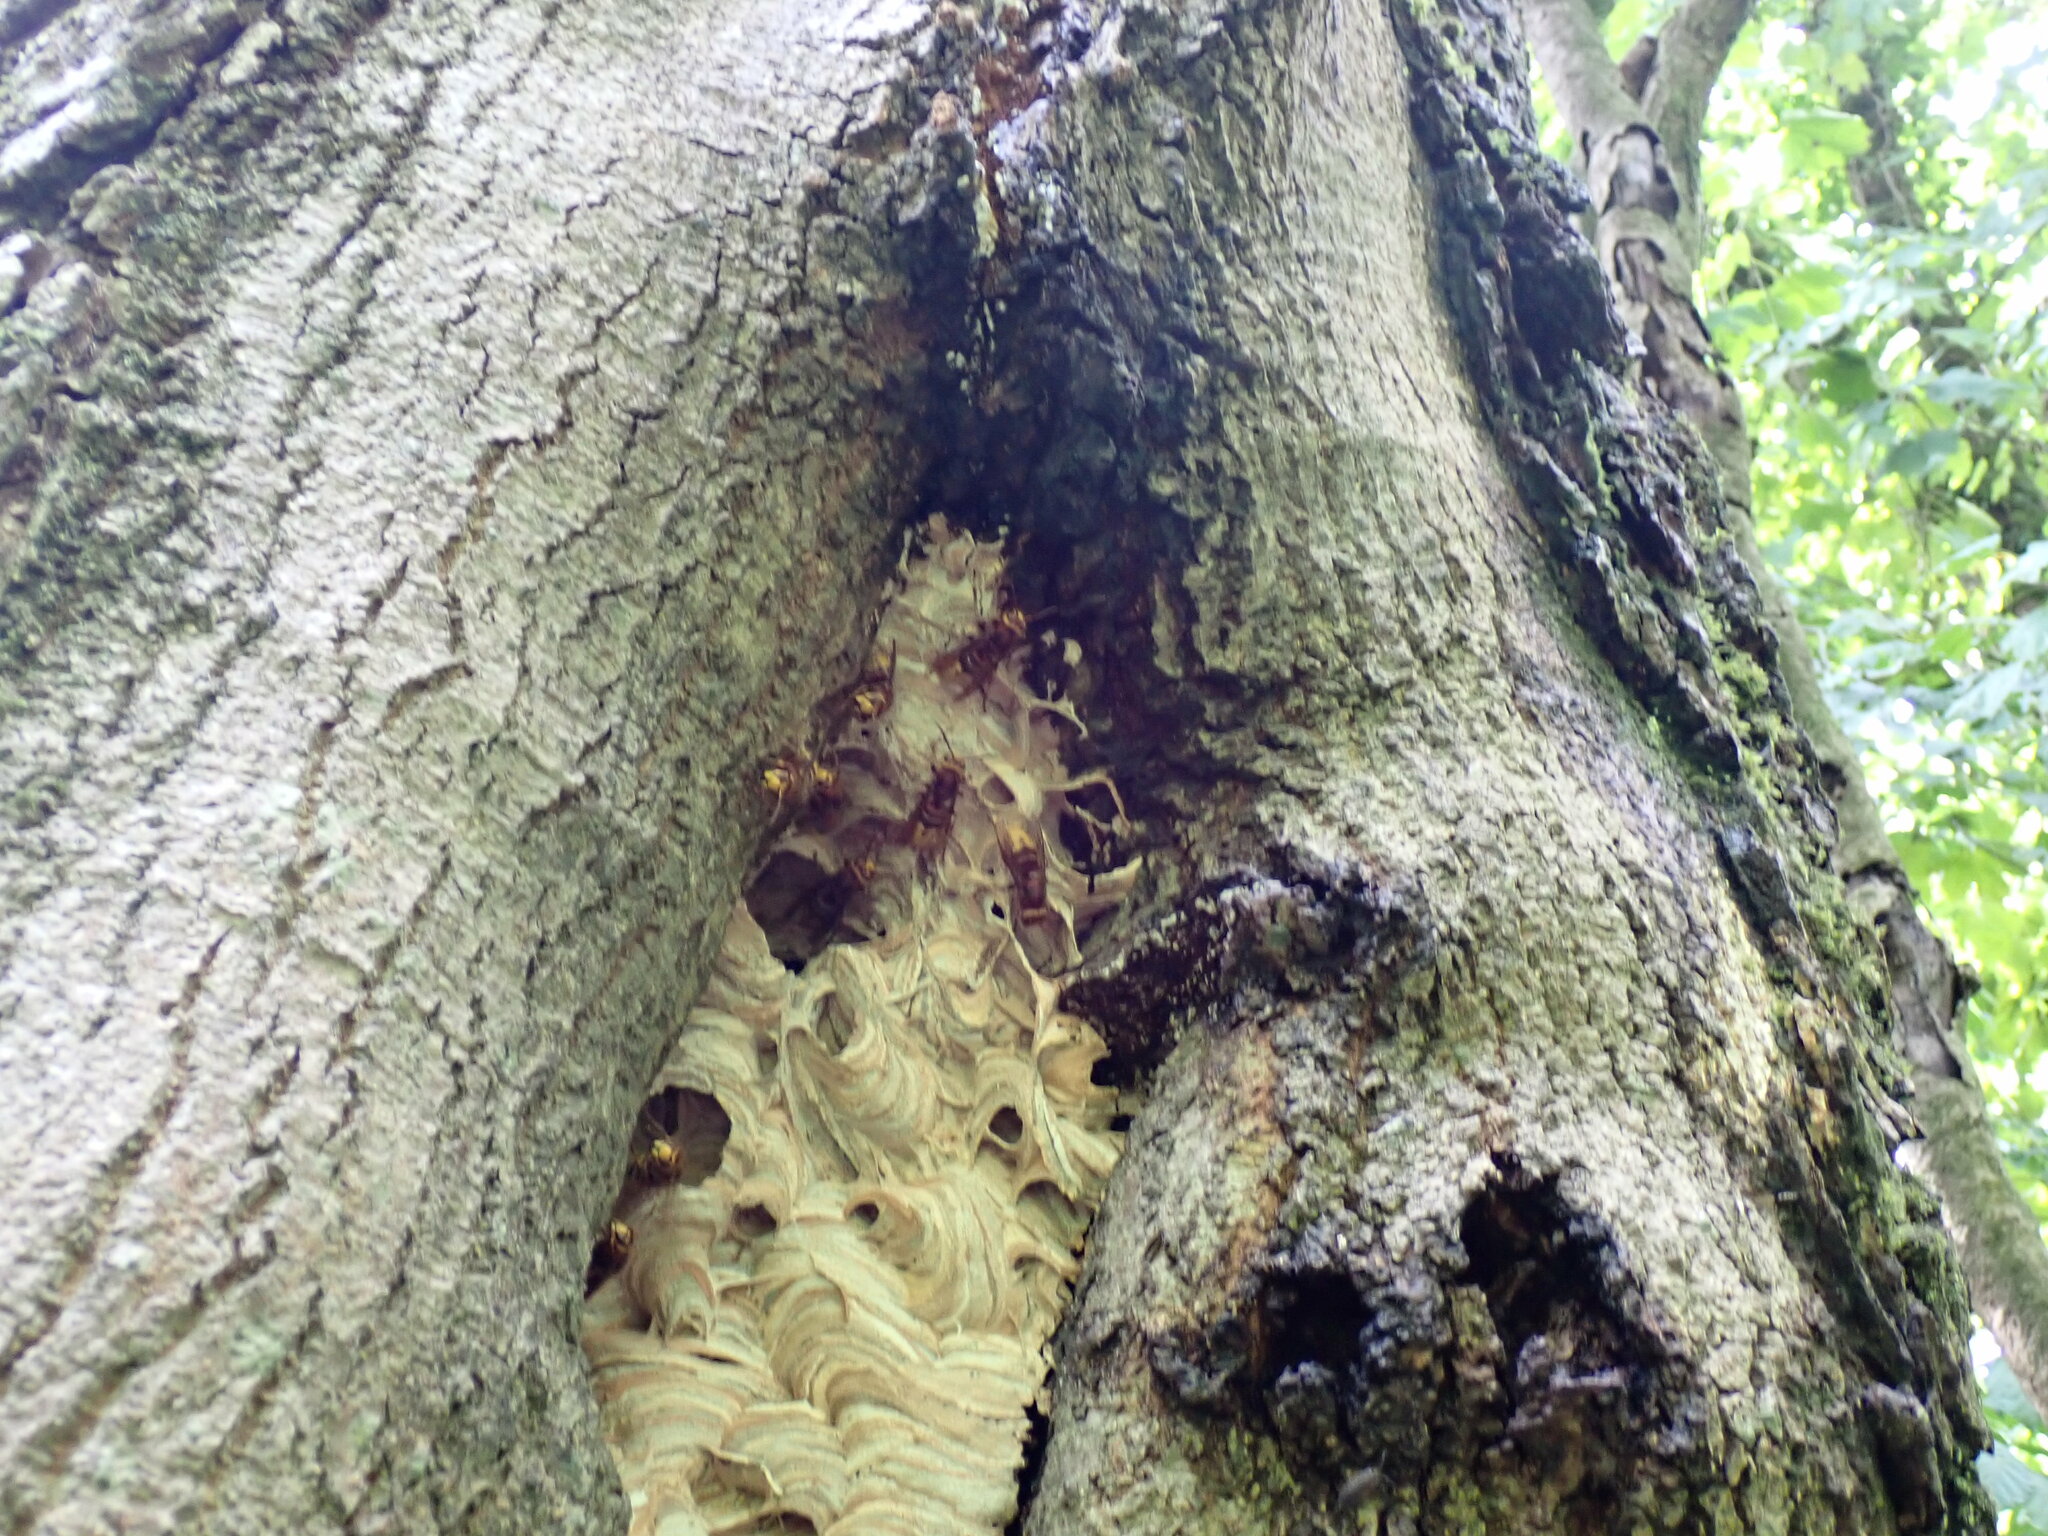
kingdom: Animalia
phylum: Arthropoda
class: Insecta
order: Hymenoptera
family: Vespidae
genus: Vespa
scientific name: Vespa crabro
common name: Hornet
